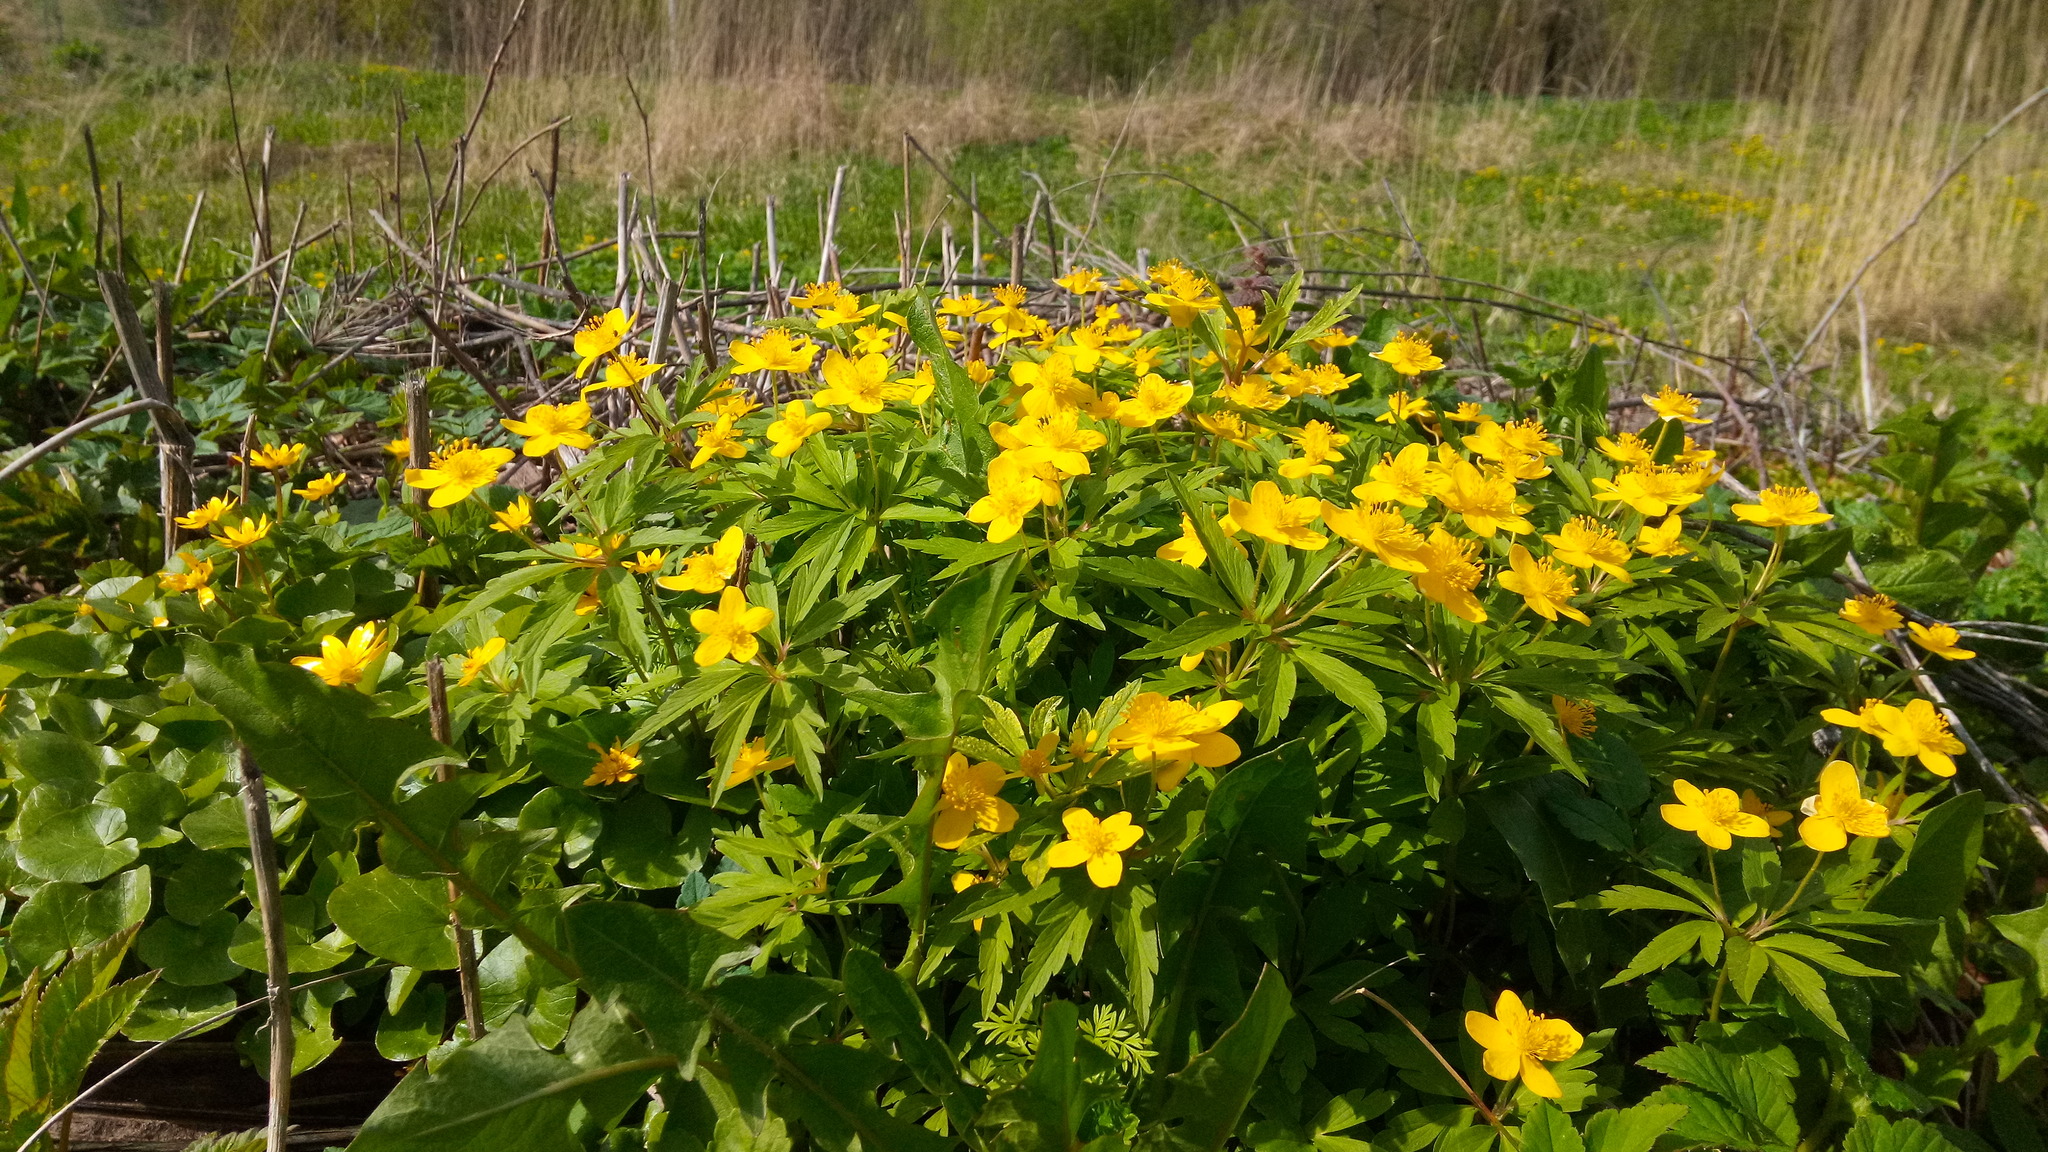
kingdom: Plantae
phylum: Tracheophyta
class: Magnoliopsida
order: Ranunculales
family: Ranunculaceae
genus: Anemone
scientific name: Anemone ranunculoides
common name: Yellow anemone
